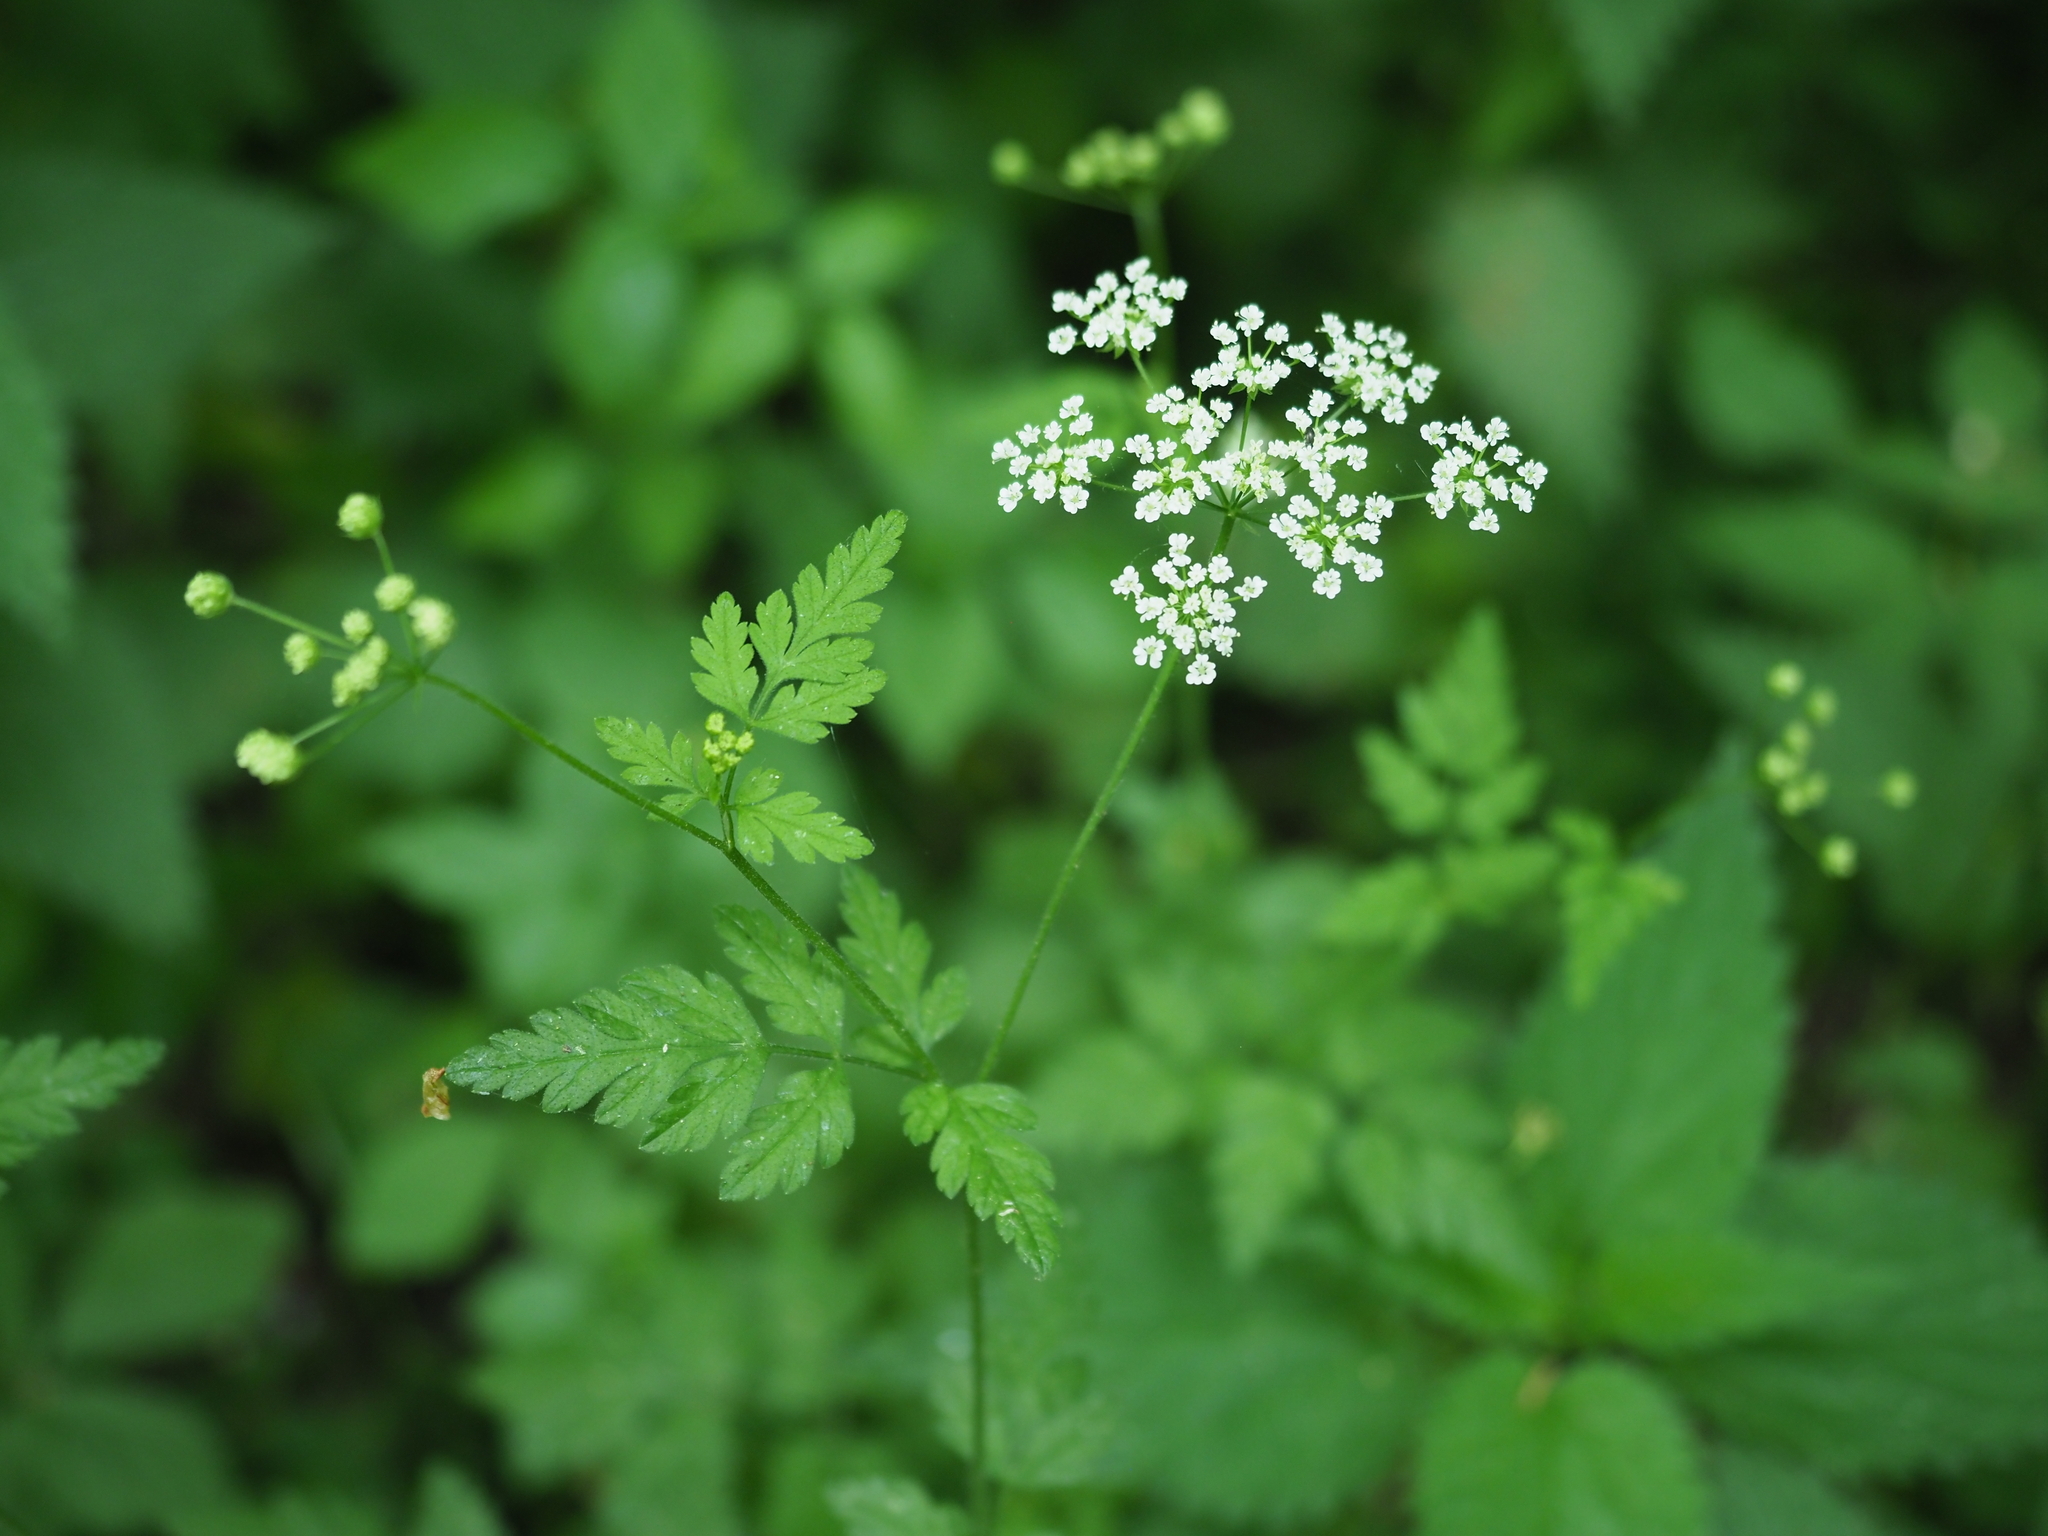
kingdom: Plantae
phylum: Tracheophyta
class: Magnoliopsida
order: Apiales
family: Apiaceae
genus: Chaerophyllum
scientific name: Chaerophyllum temulum
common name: Rough chervil
